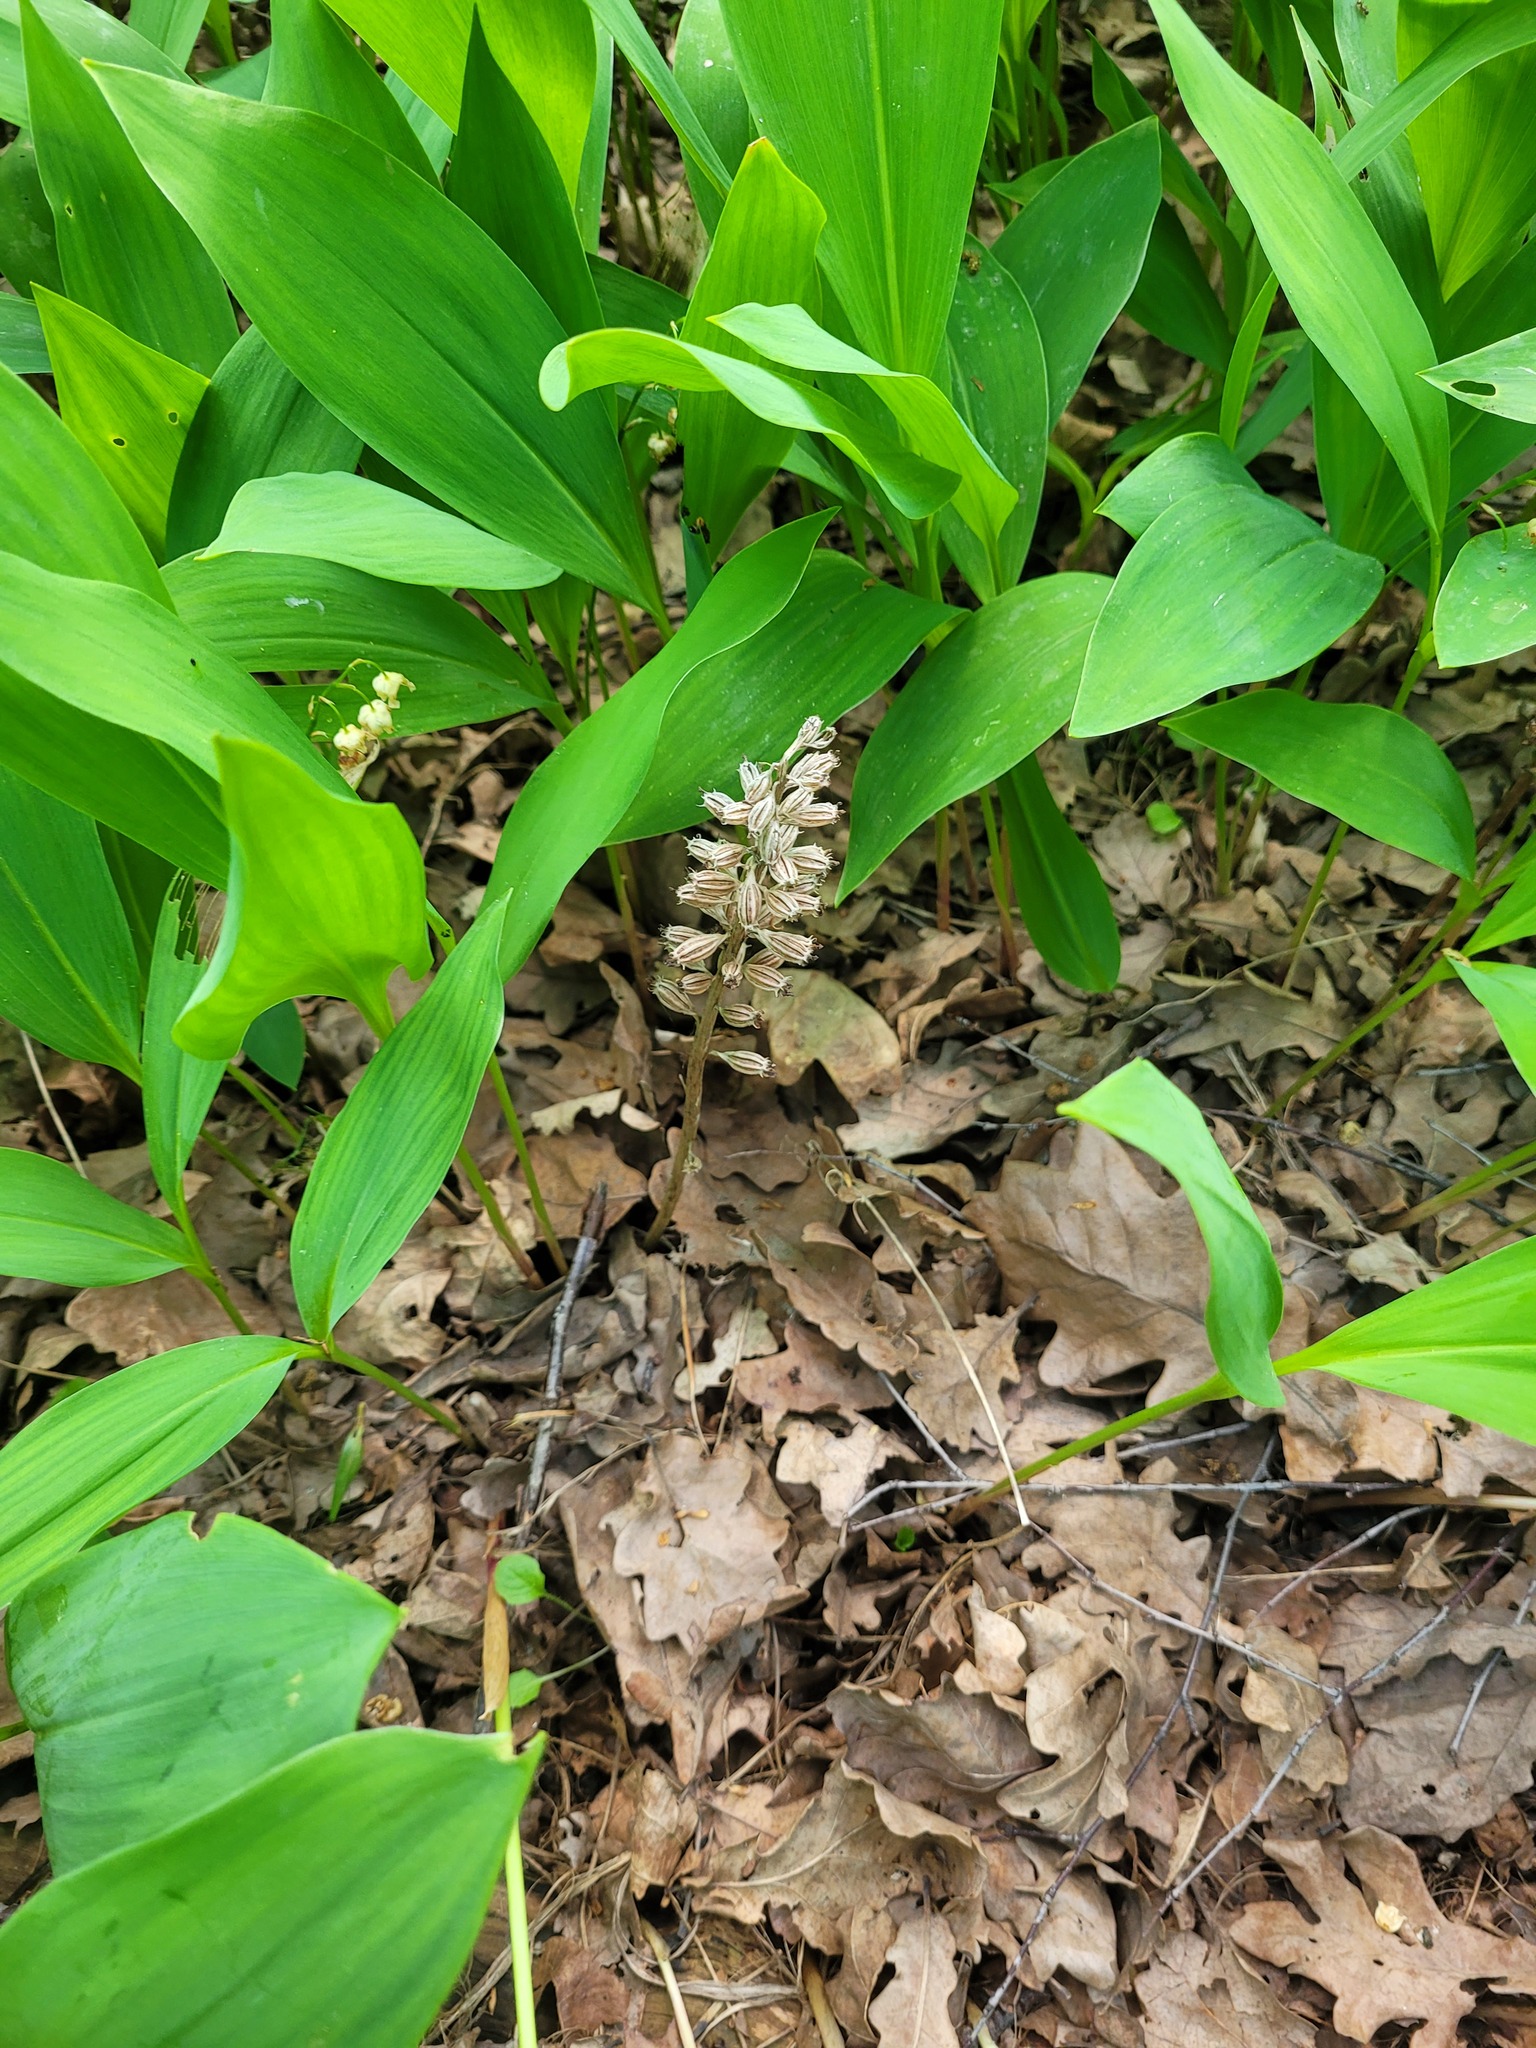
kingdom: Plantae
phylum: Tracheophyta
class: Liliopsida
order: Asparagales
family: Orchidaceae
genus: Neottia
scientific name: Neottia nidus-avis
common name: Bird's-nest orchid
